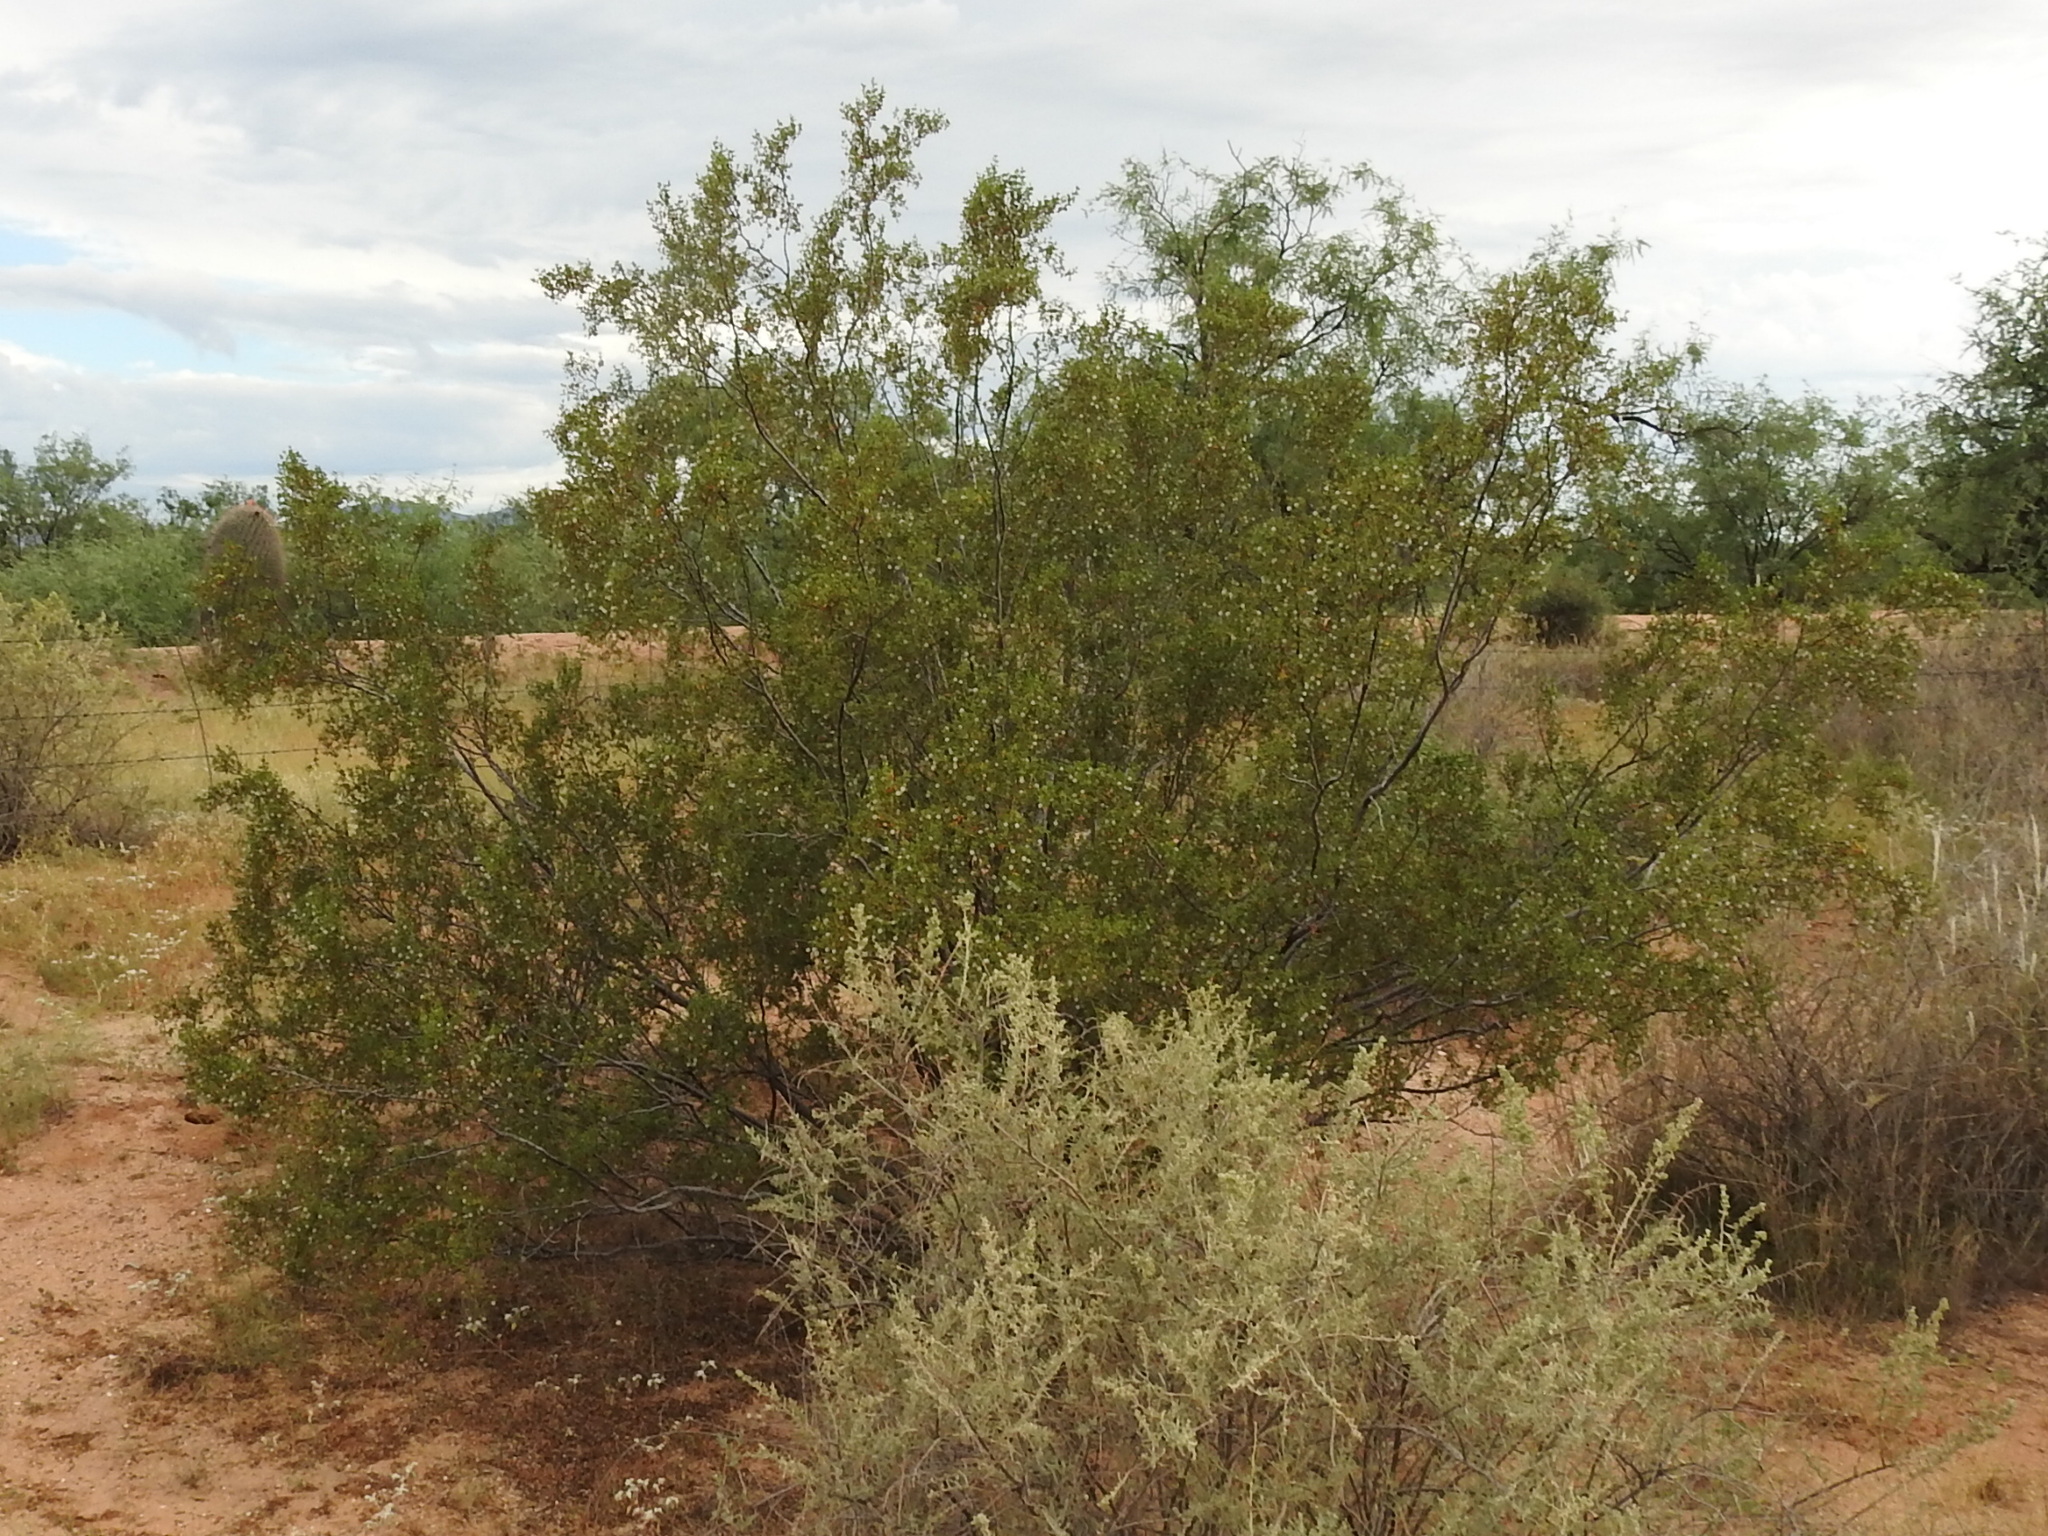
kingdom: Plantae
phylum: Tracheophyta
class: Magnoliopsida
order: Zygophyllales
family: Zygophyllaceae
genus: Larrea
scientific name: Larrea tridentata
